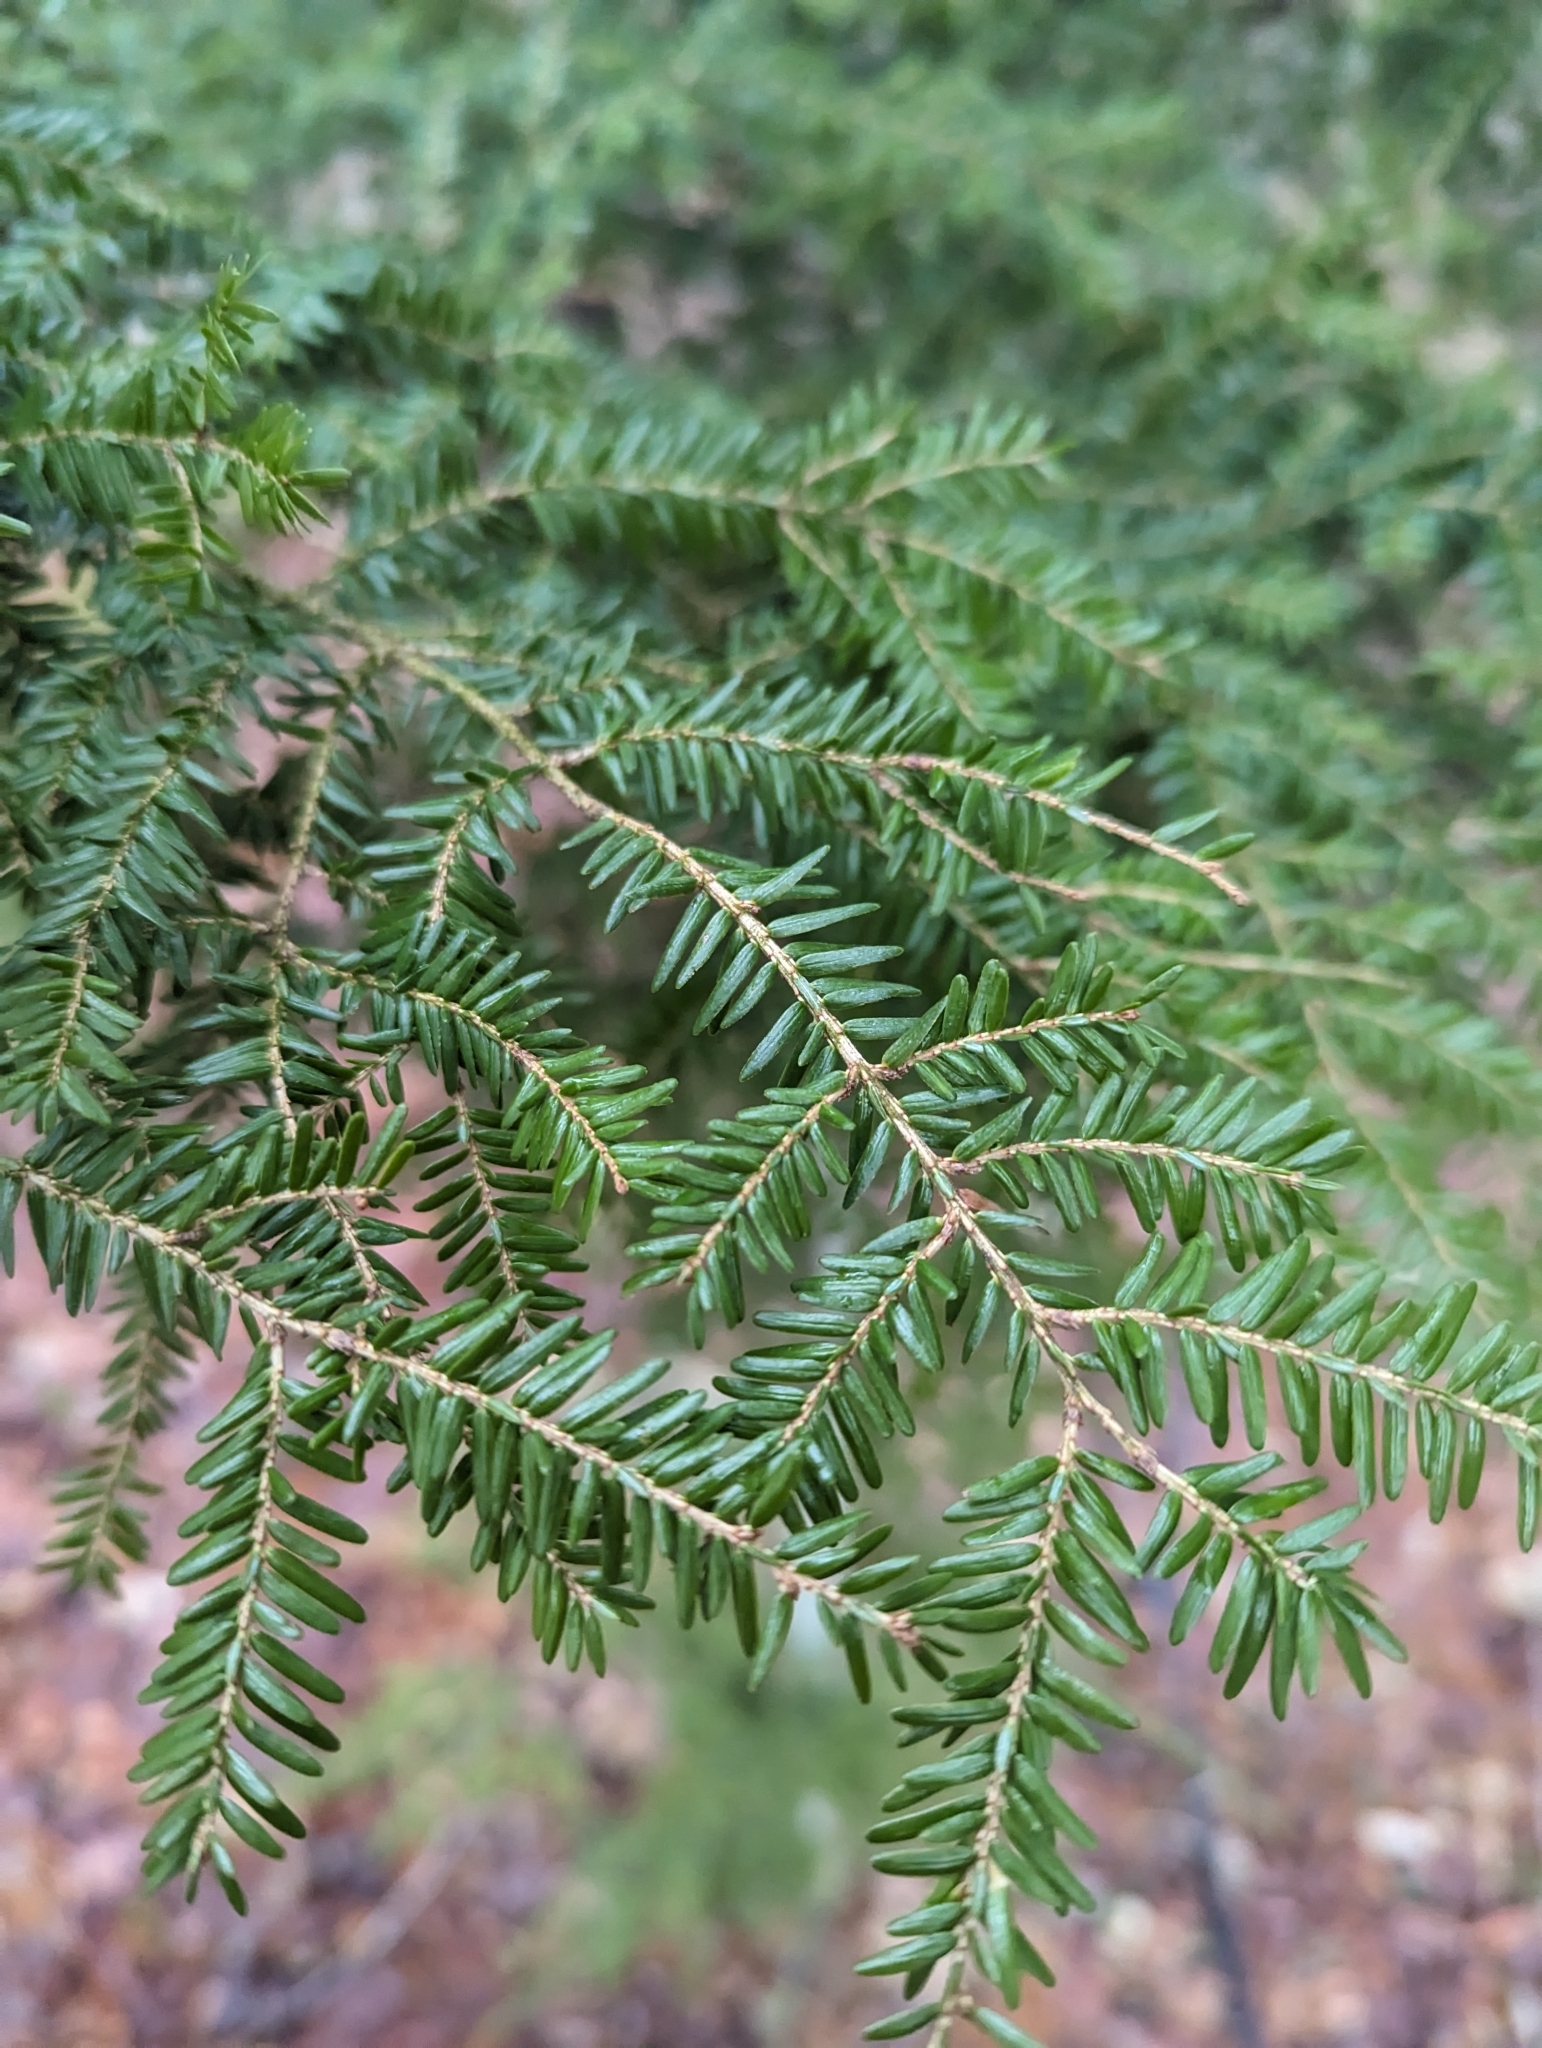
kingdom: Plantae
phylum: Tracheophyta
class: Pinopsida
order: Pinales
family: Pinaceae
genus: Tsuga
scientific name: Tsuga canadensis
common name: Eastern hemlock
